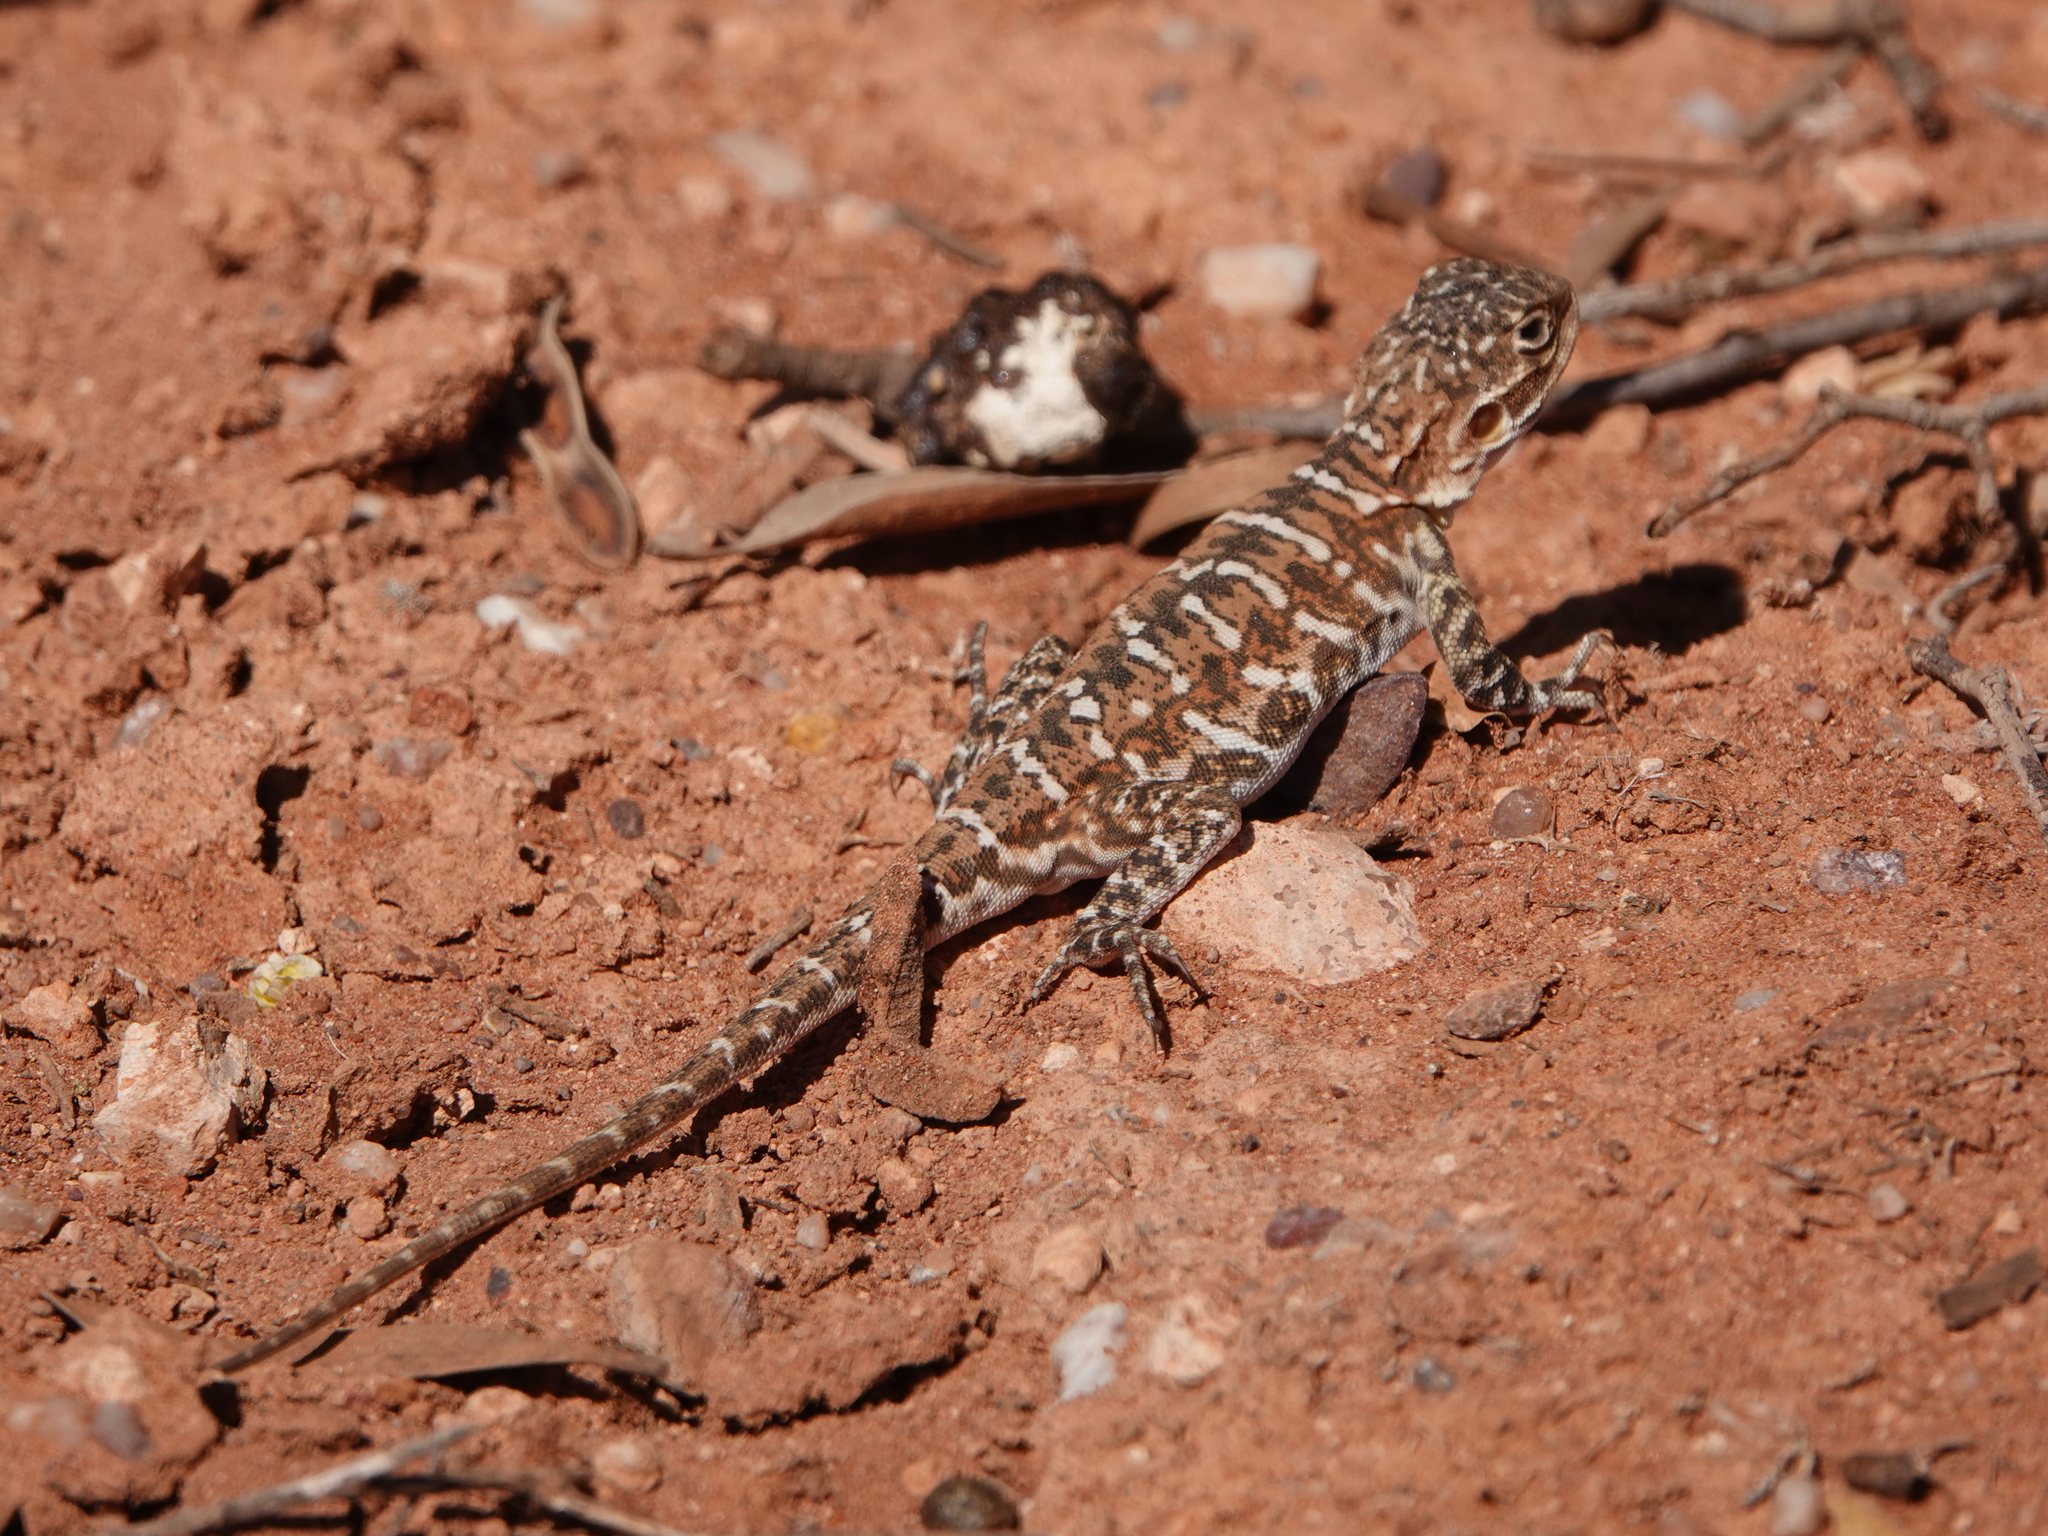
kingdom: Animalia
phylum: Chordata
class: Squamata
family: Agamidae
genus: Ctenophorus
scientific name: Ctenophorus pictus
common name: Painted dragon
